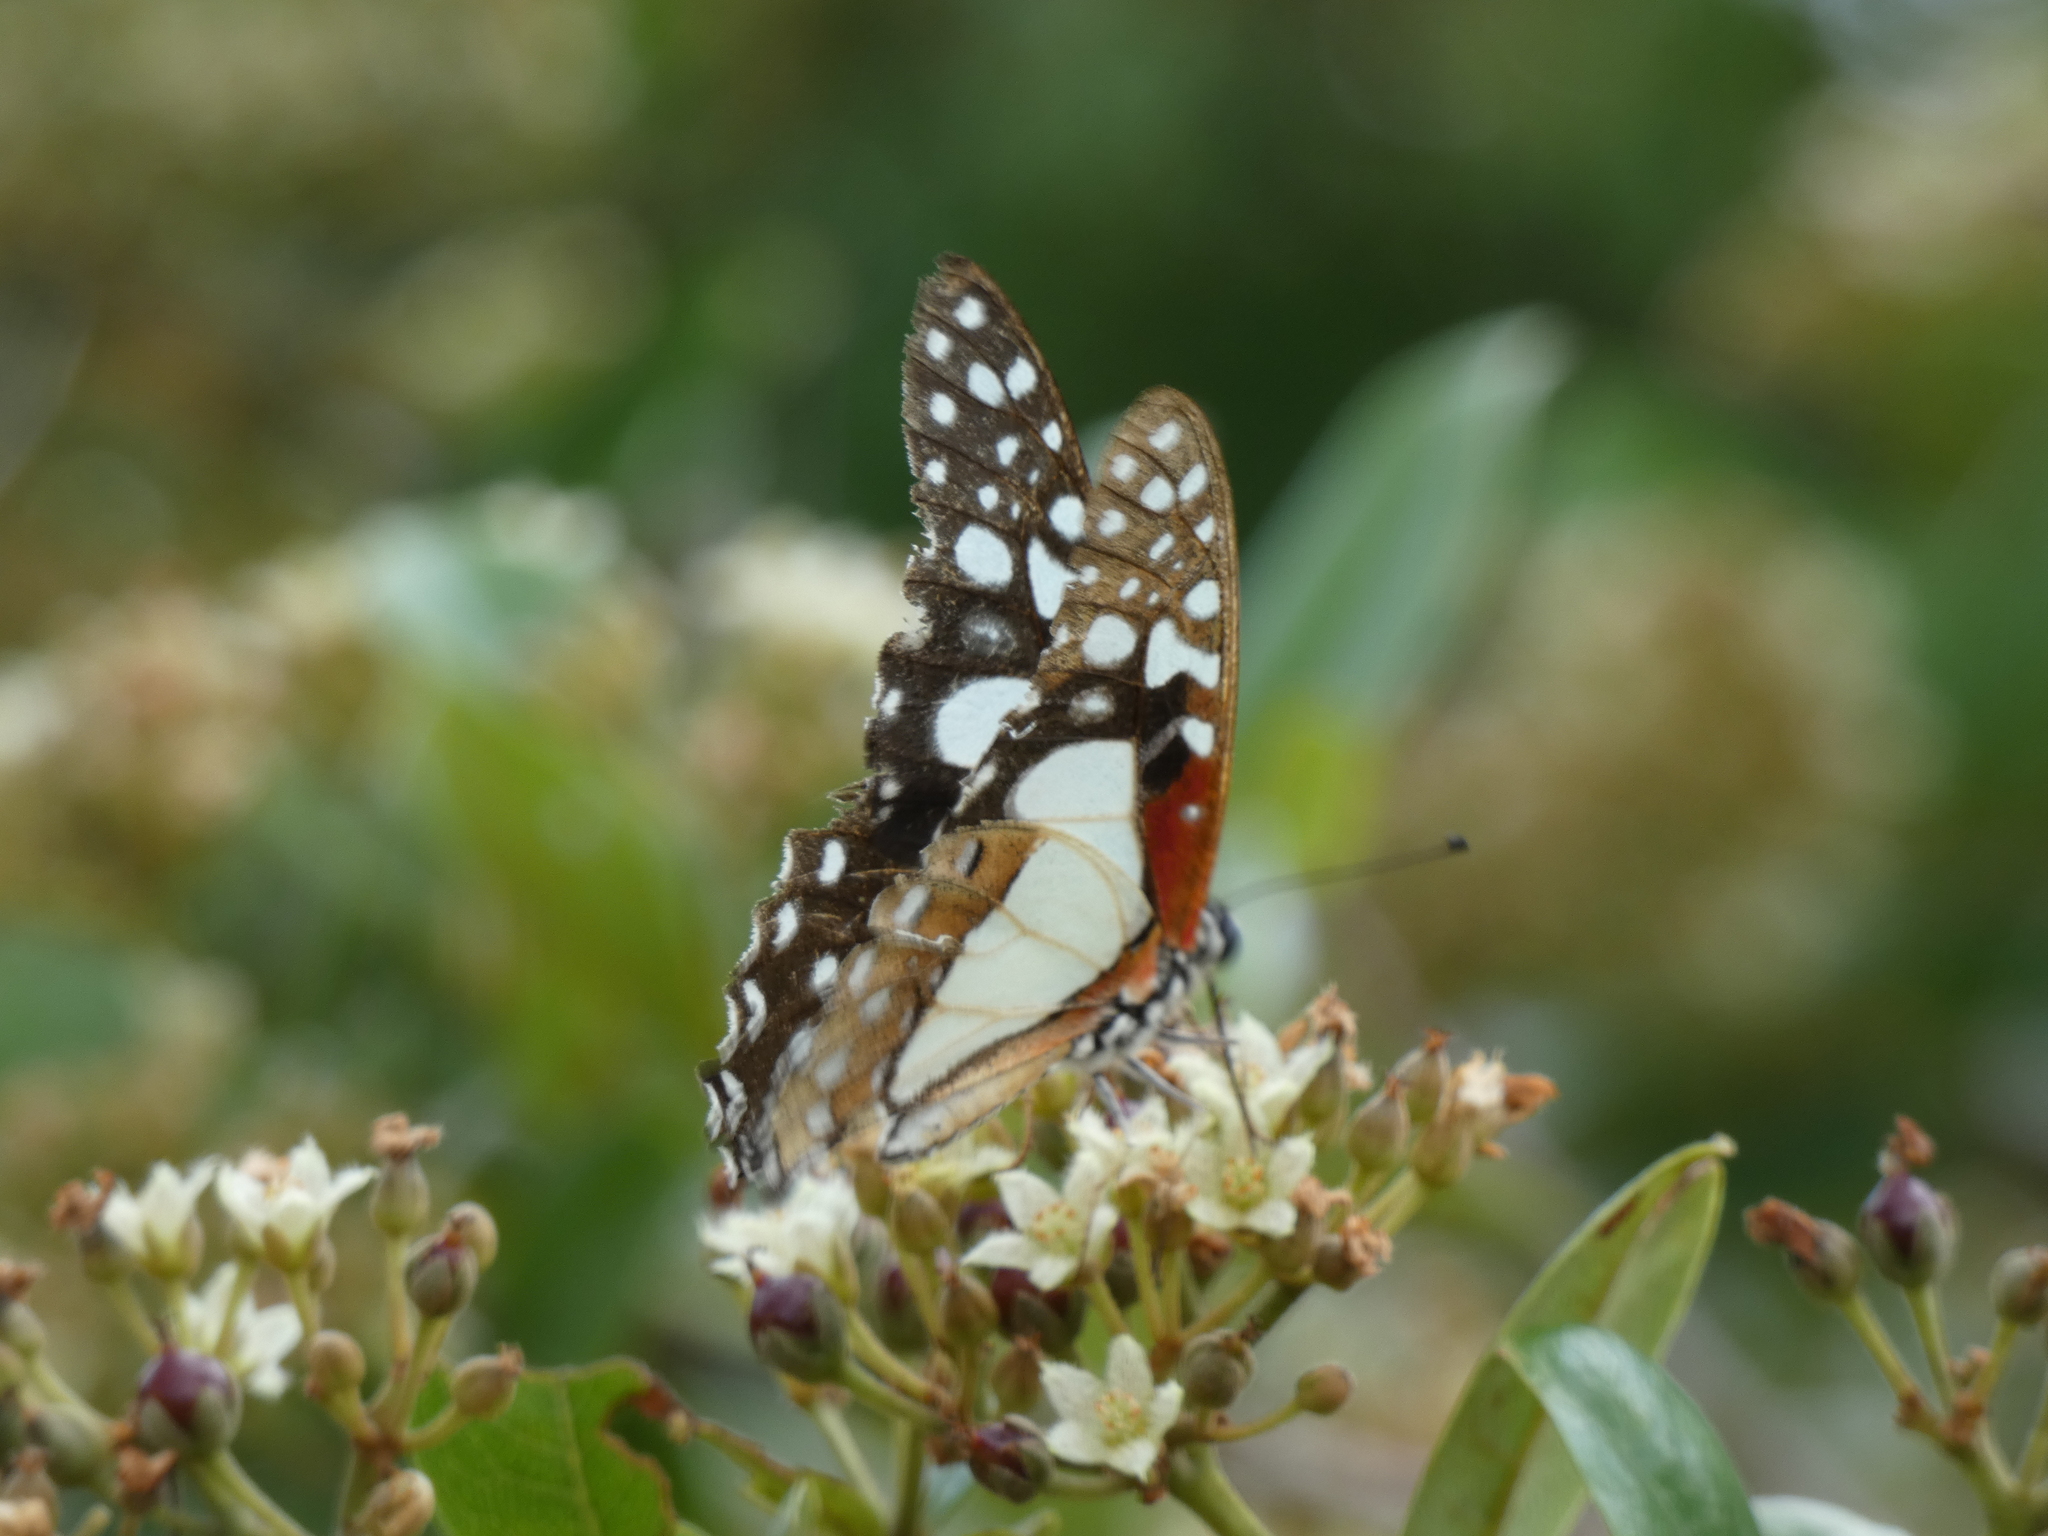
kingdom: Animalia
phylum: Arthropoda
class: Insecta
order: Lepidoptera
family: Papilionidae
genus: Graphium
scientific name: Graphium angolanus
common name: Angola white-lady swordtail
